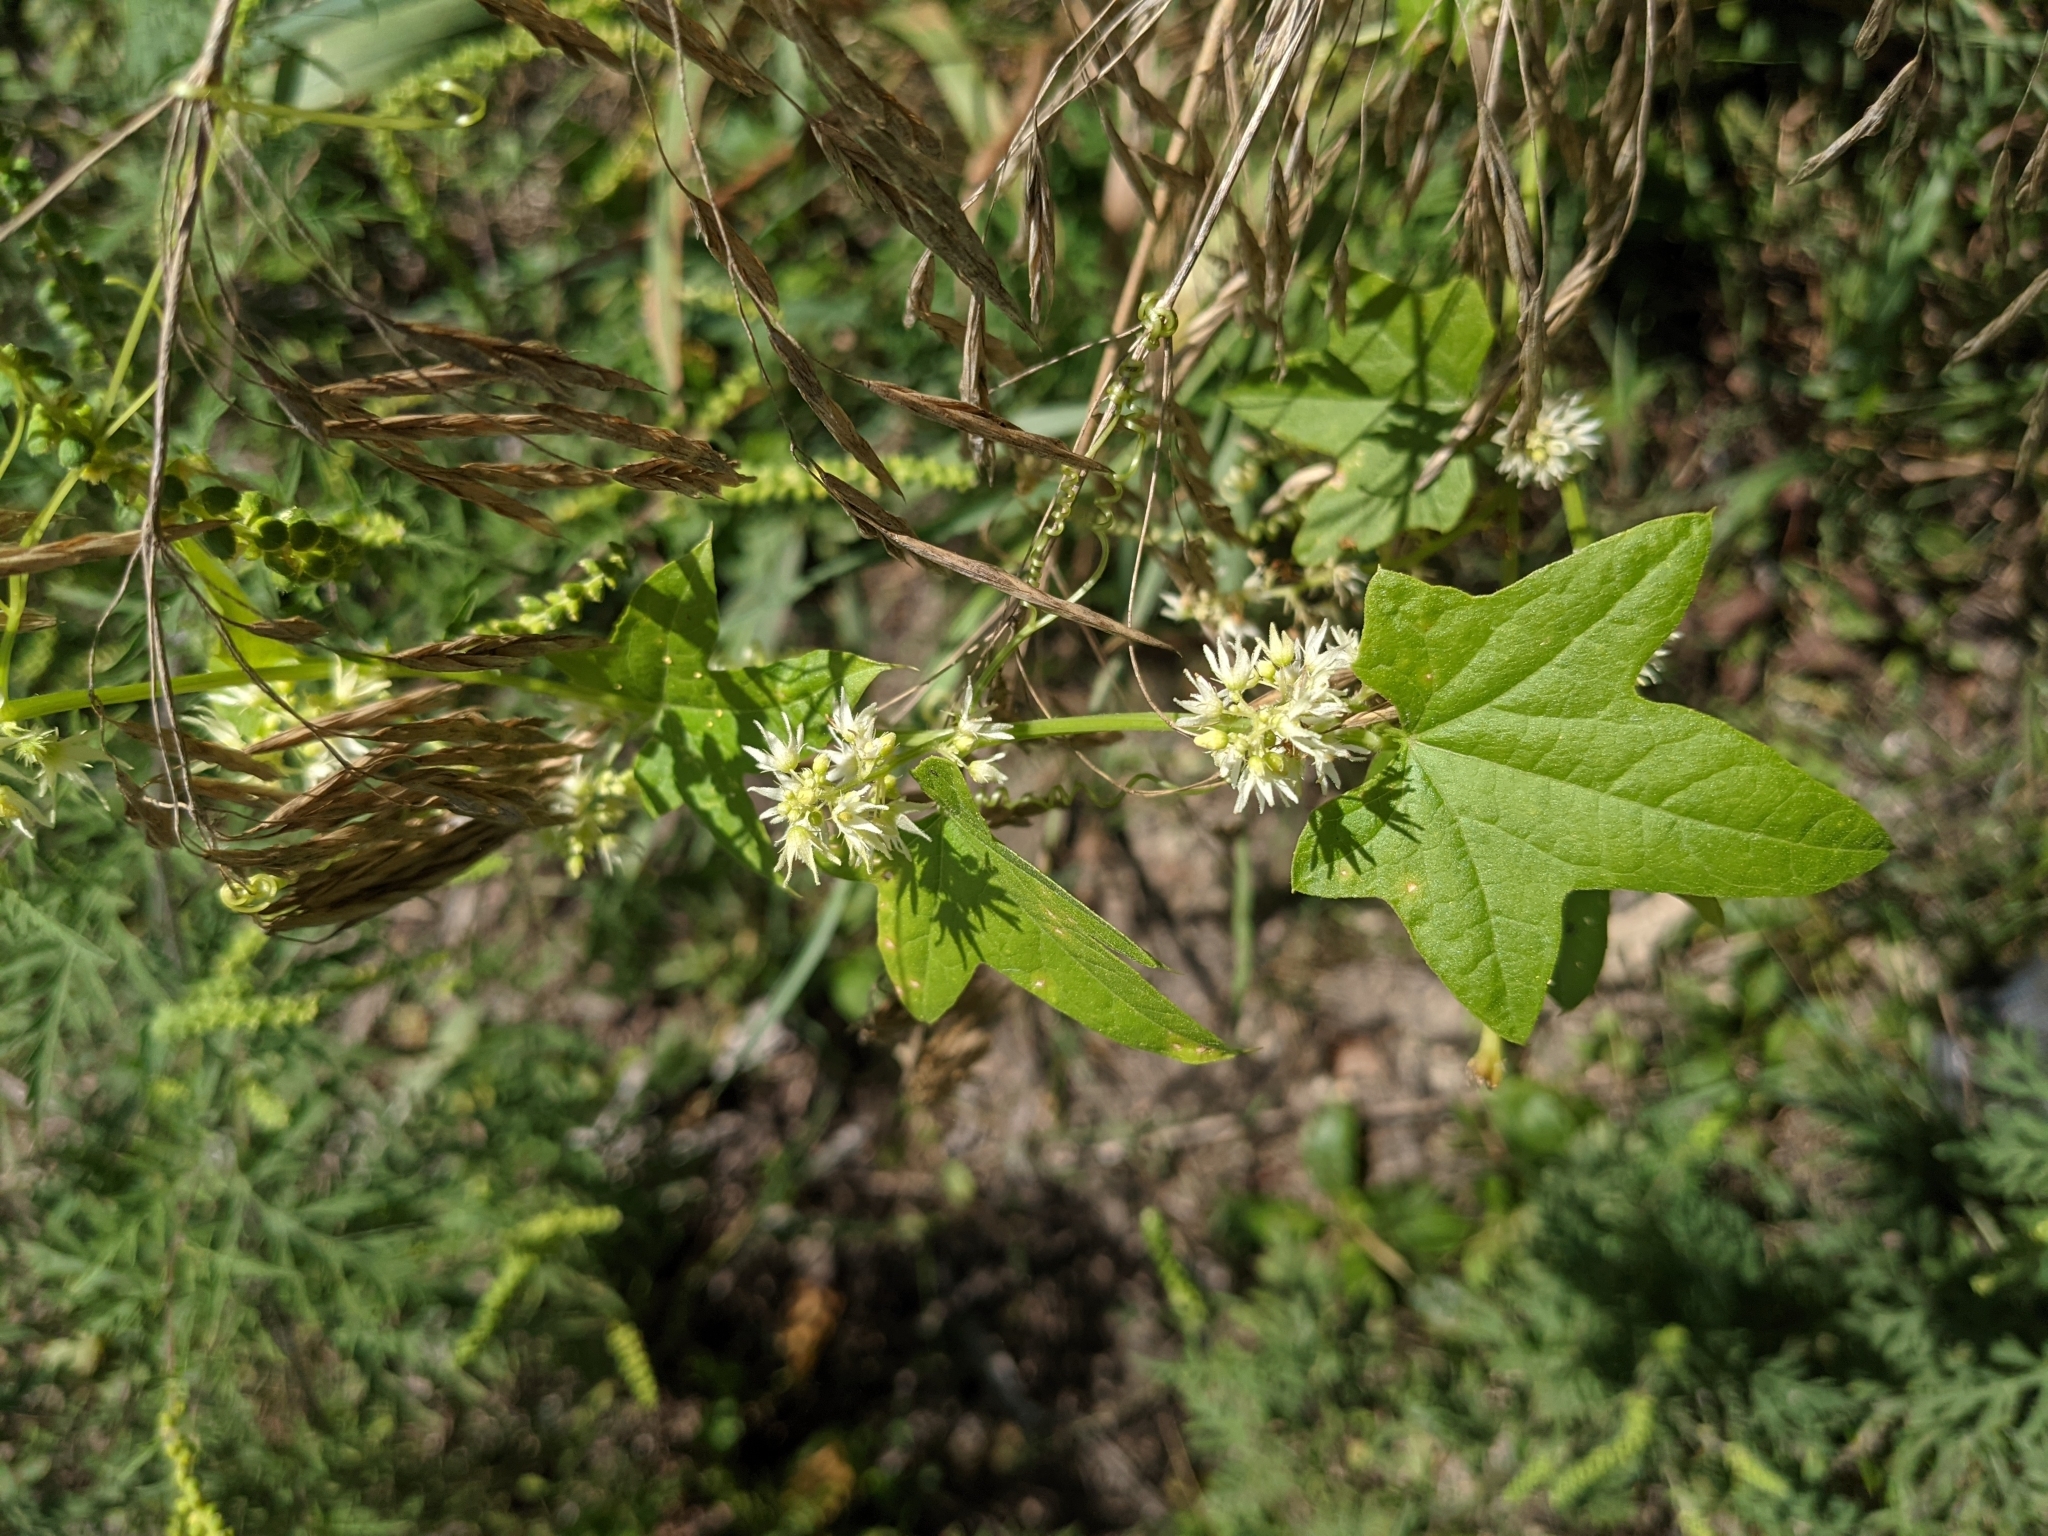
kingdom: Plantae
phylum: Tracheophyta
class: Magnoliopsida
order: Cucurbitales
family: Cucurbitaceae
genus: Echinocystis
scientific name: Echinocystis lobata
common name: Wild cucumber
